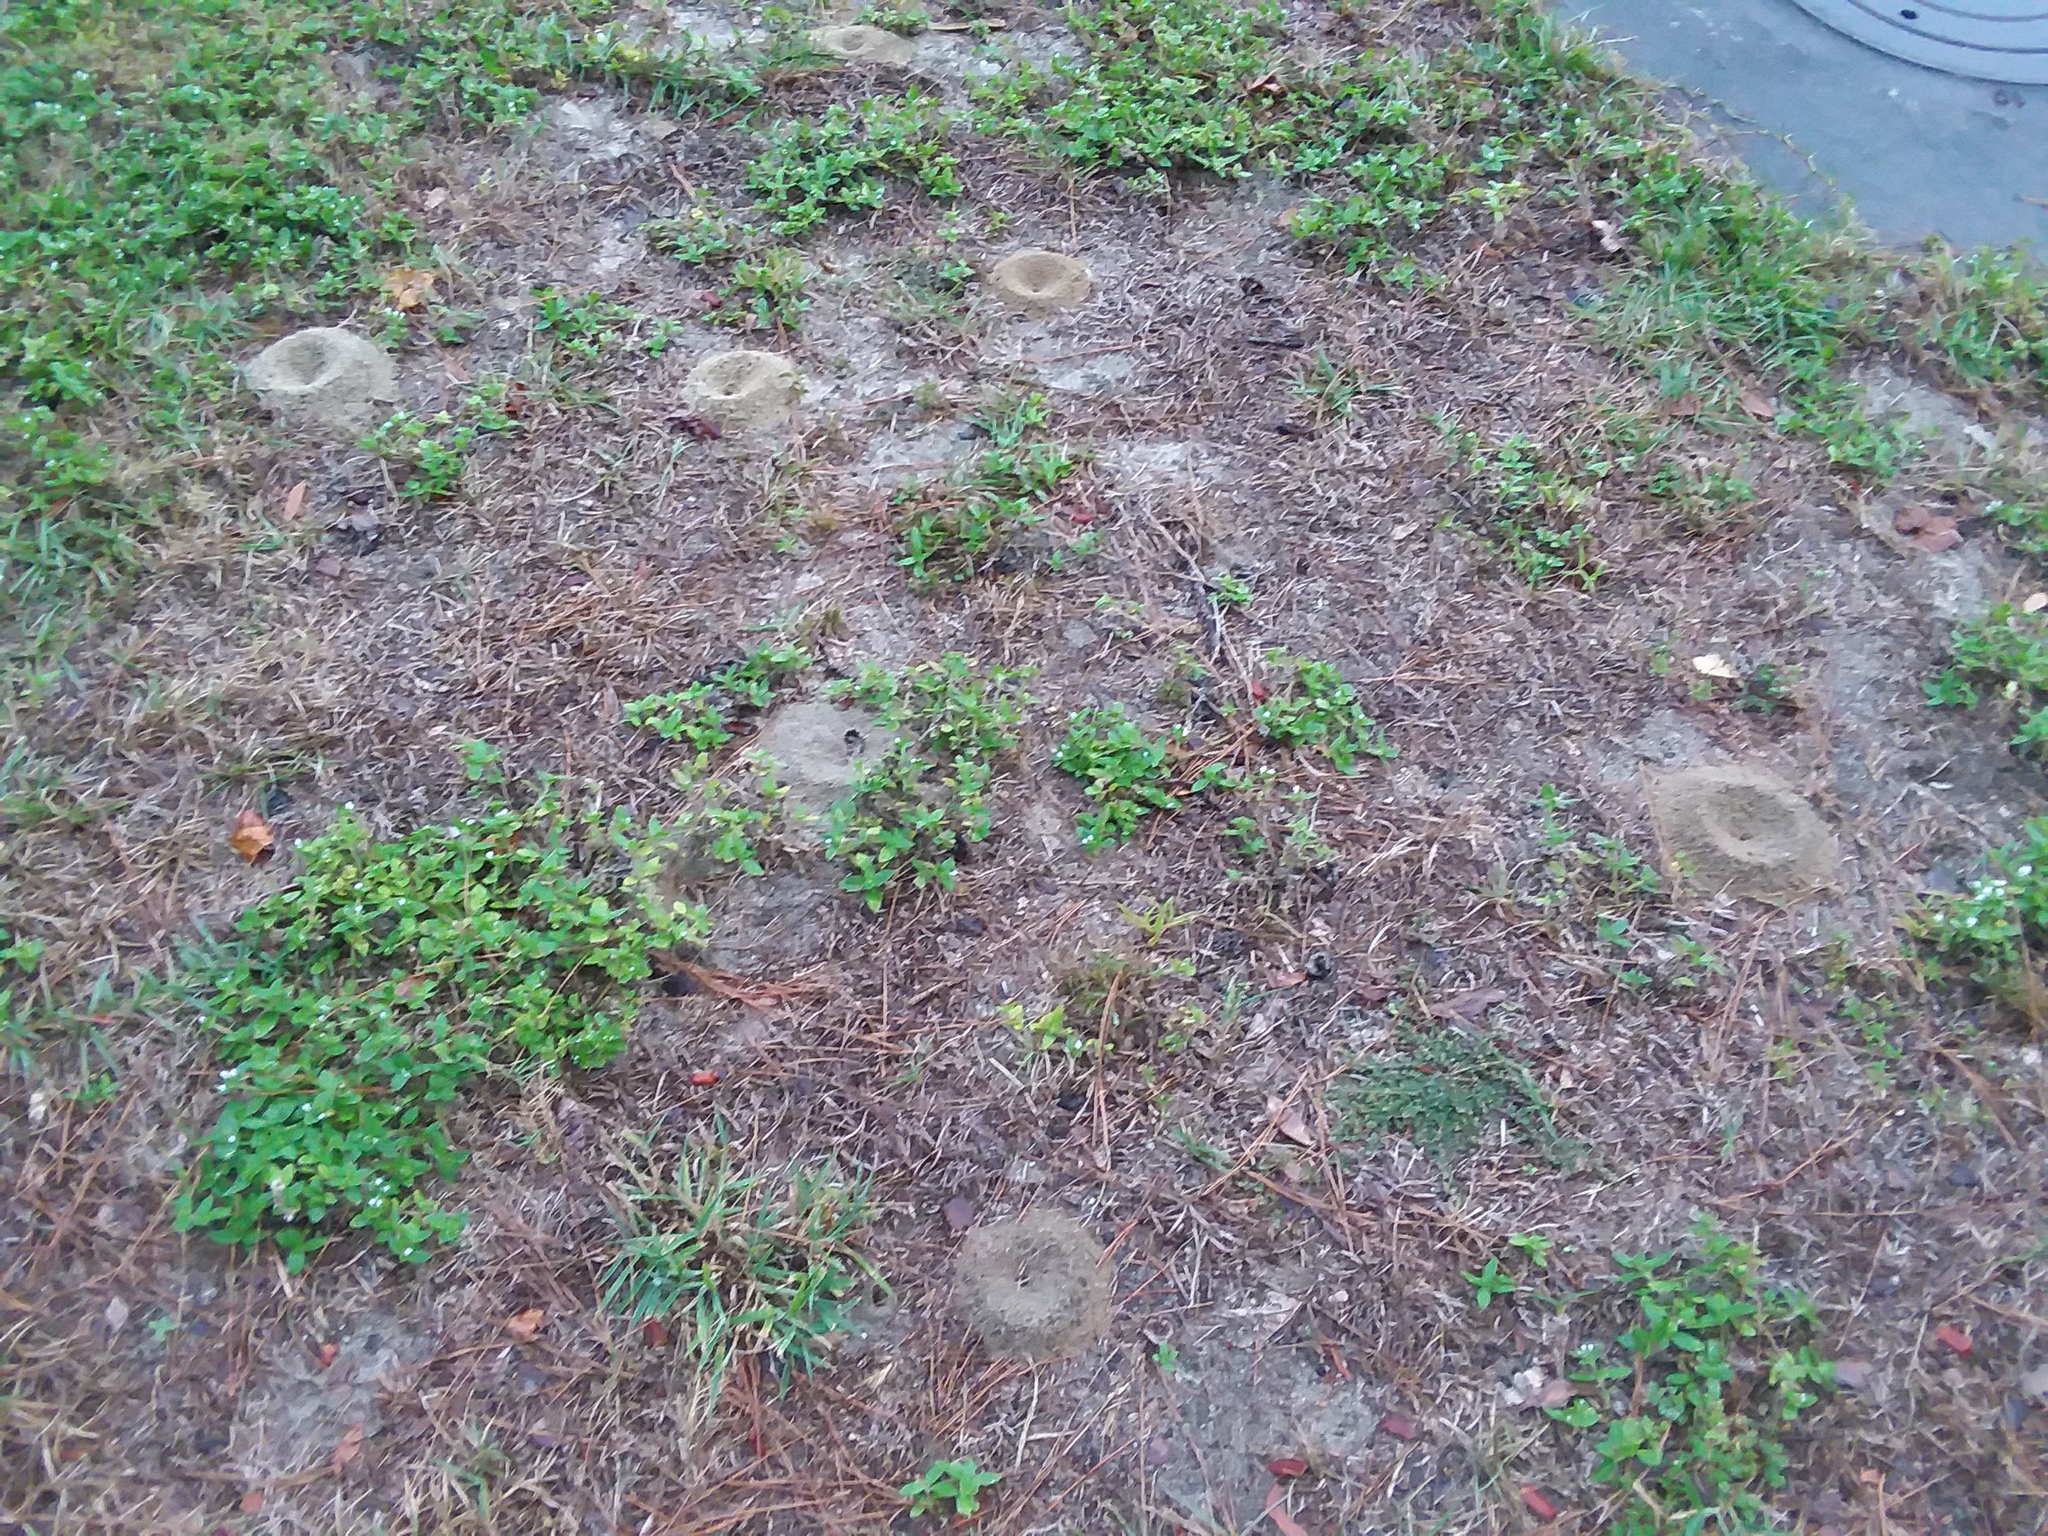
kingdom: Animalia
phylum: Arthropoda
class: Insecta
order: Hymenoptera
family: Formicidae
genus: Dorymyrmex
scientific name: Dorymyrmex bureni
